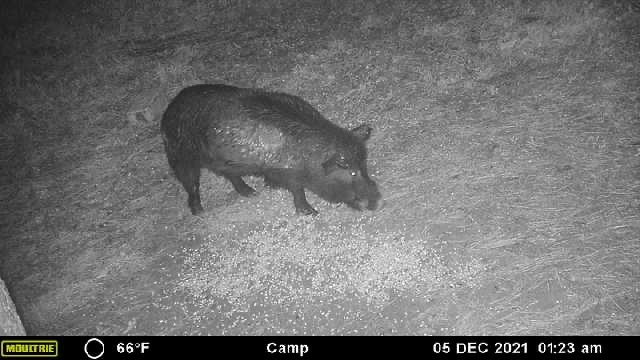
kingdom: Animalia
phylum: Chordata
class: Mammalia
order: Artiodactyla
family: Suidae
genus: Sus
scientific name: Sus scrofa
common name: Wild boar
